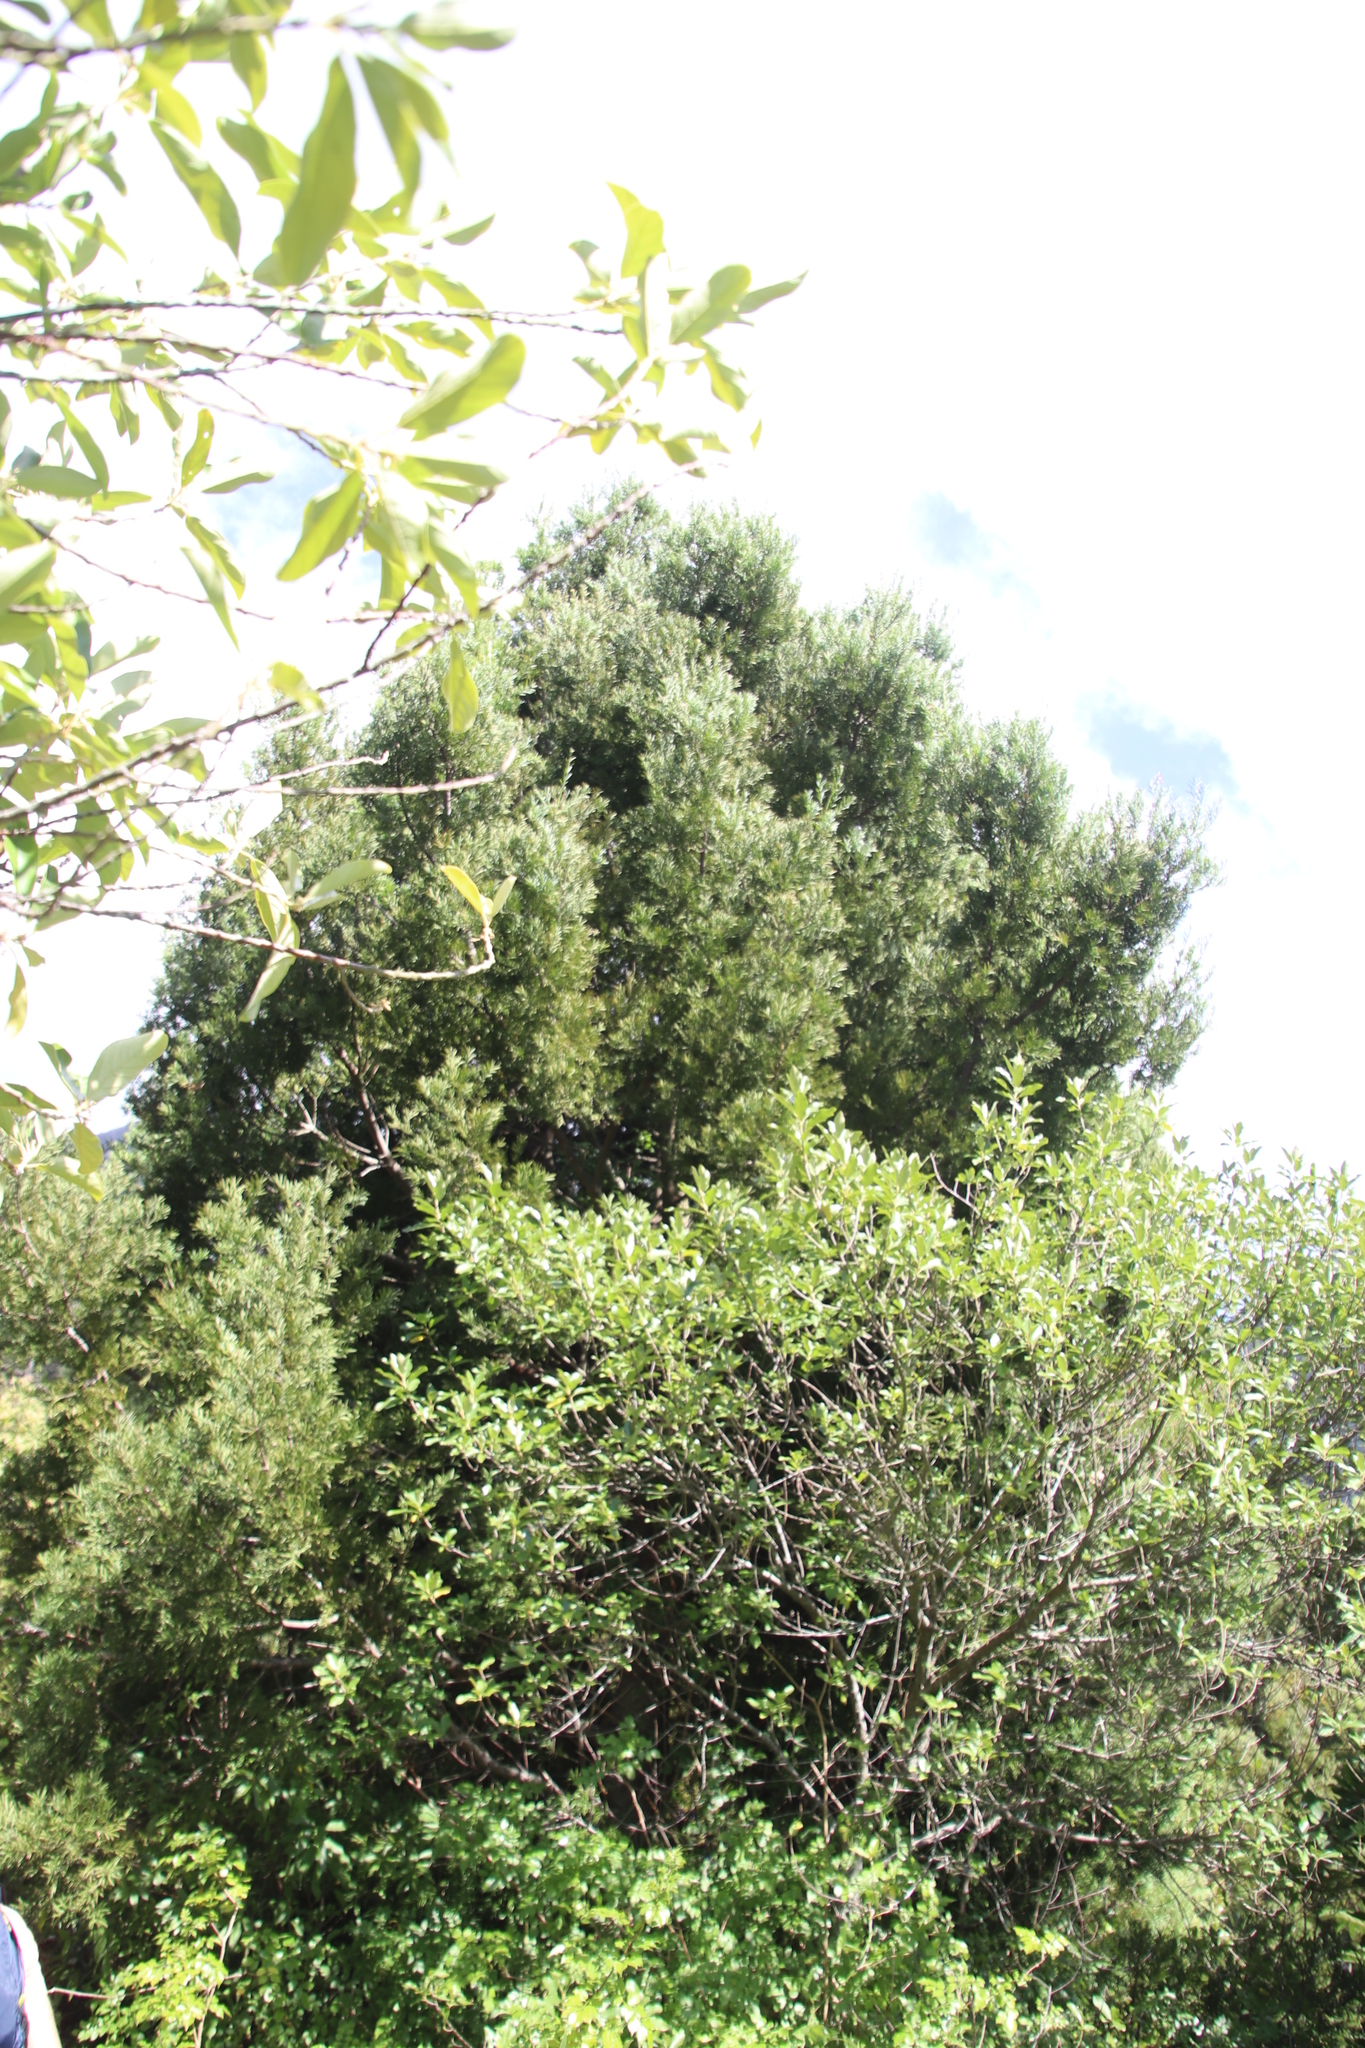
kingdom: Plantae
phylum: Tracheophyta
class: Pinopsida
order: Pinales
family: Podocarpaceae
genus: Afrocarpus
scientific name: Afrocarpus falcatus
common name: Bastard yellowwood
